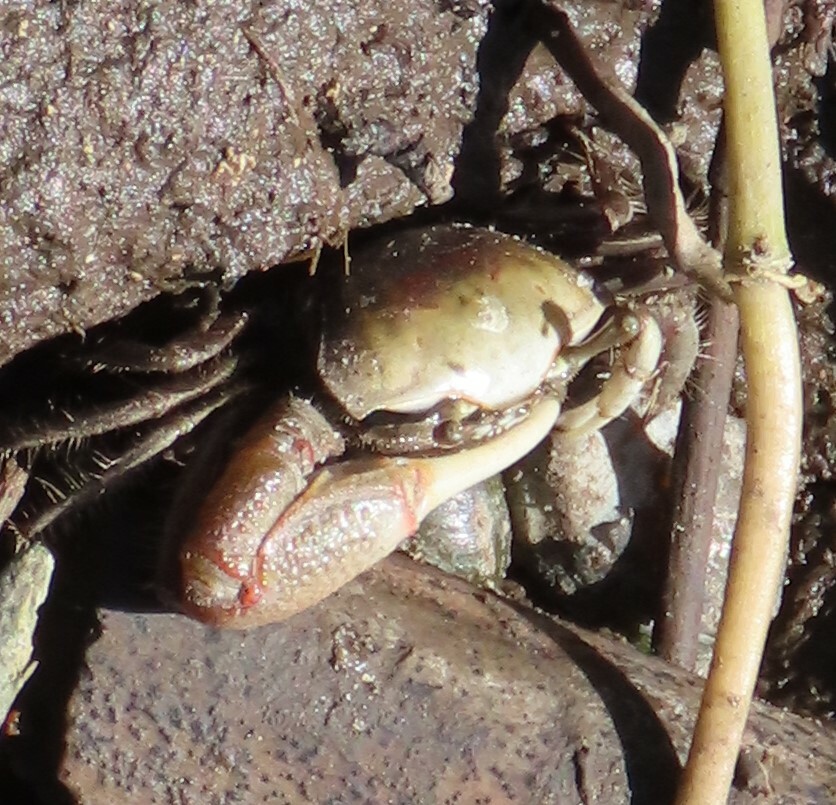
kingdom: Animalia
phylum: Arthropoda
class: Malacostraca
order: Decapoda
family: Ocypodidae
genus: Minuca
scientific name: Minuca minax
